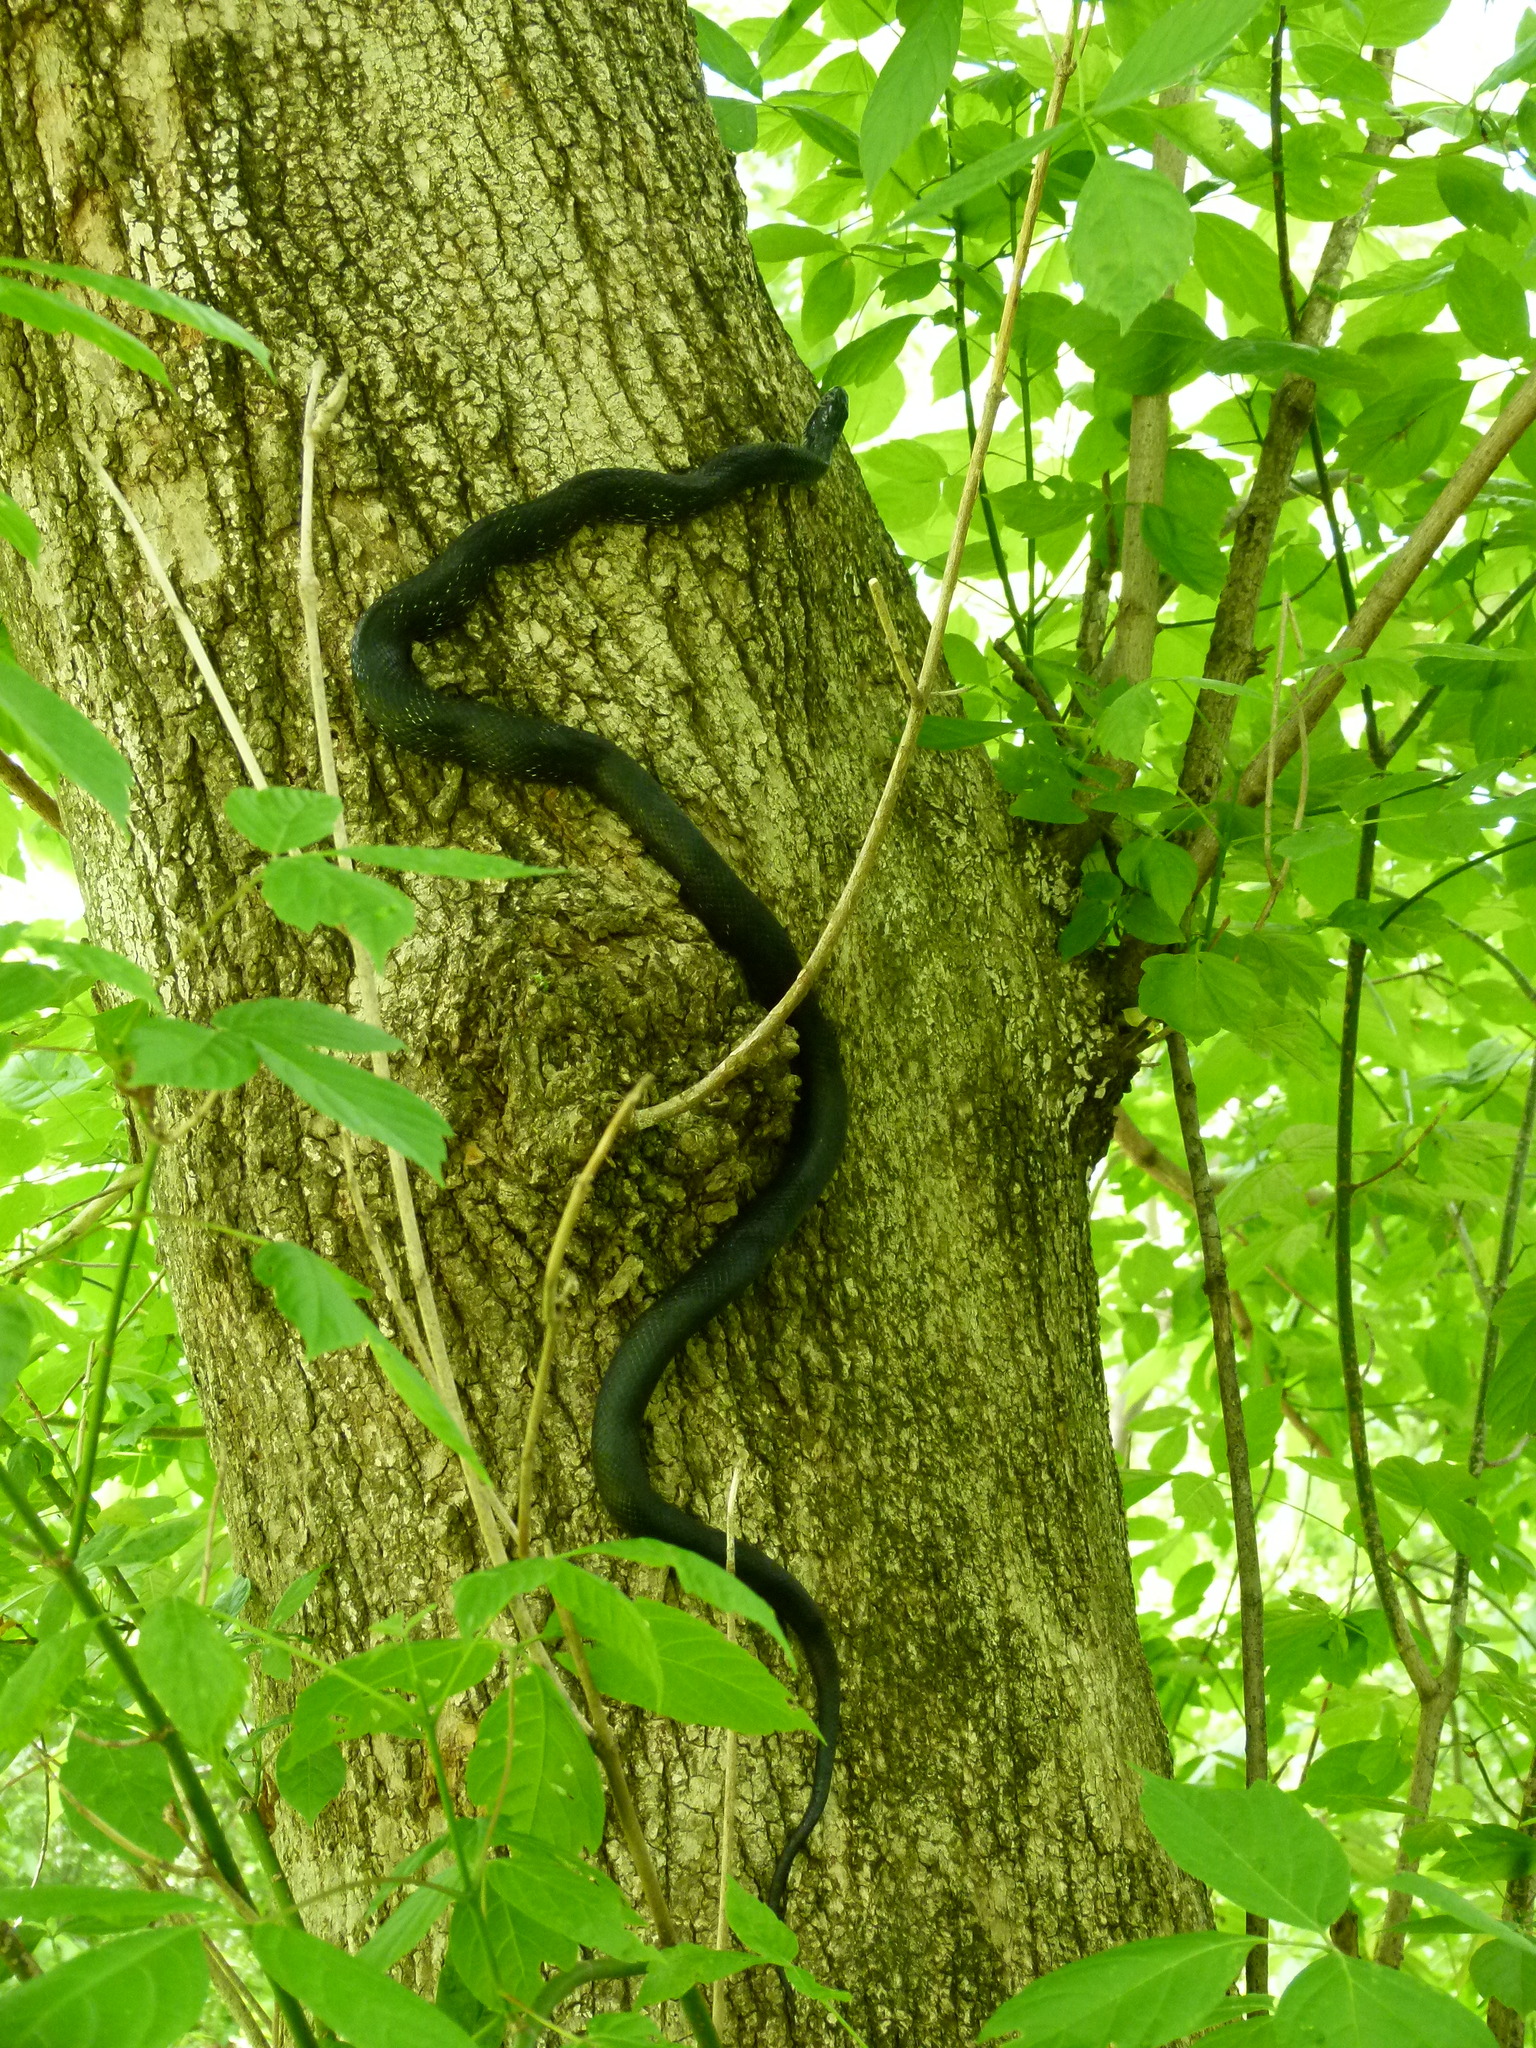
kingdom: Animalia
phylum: Chordata
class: Squamata
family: Colubridae
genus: Pantherophis
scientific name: Pantherophis alleghaniensis
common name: Eastern rat snake
